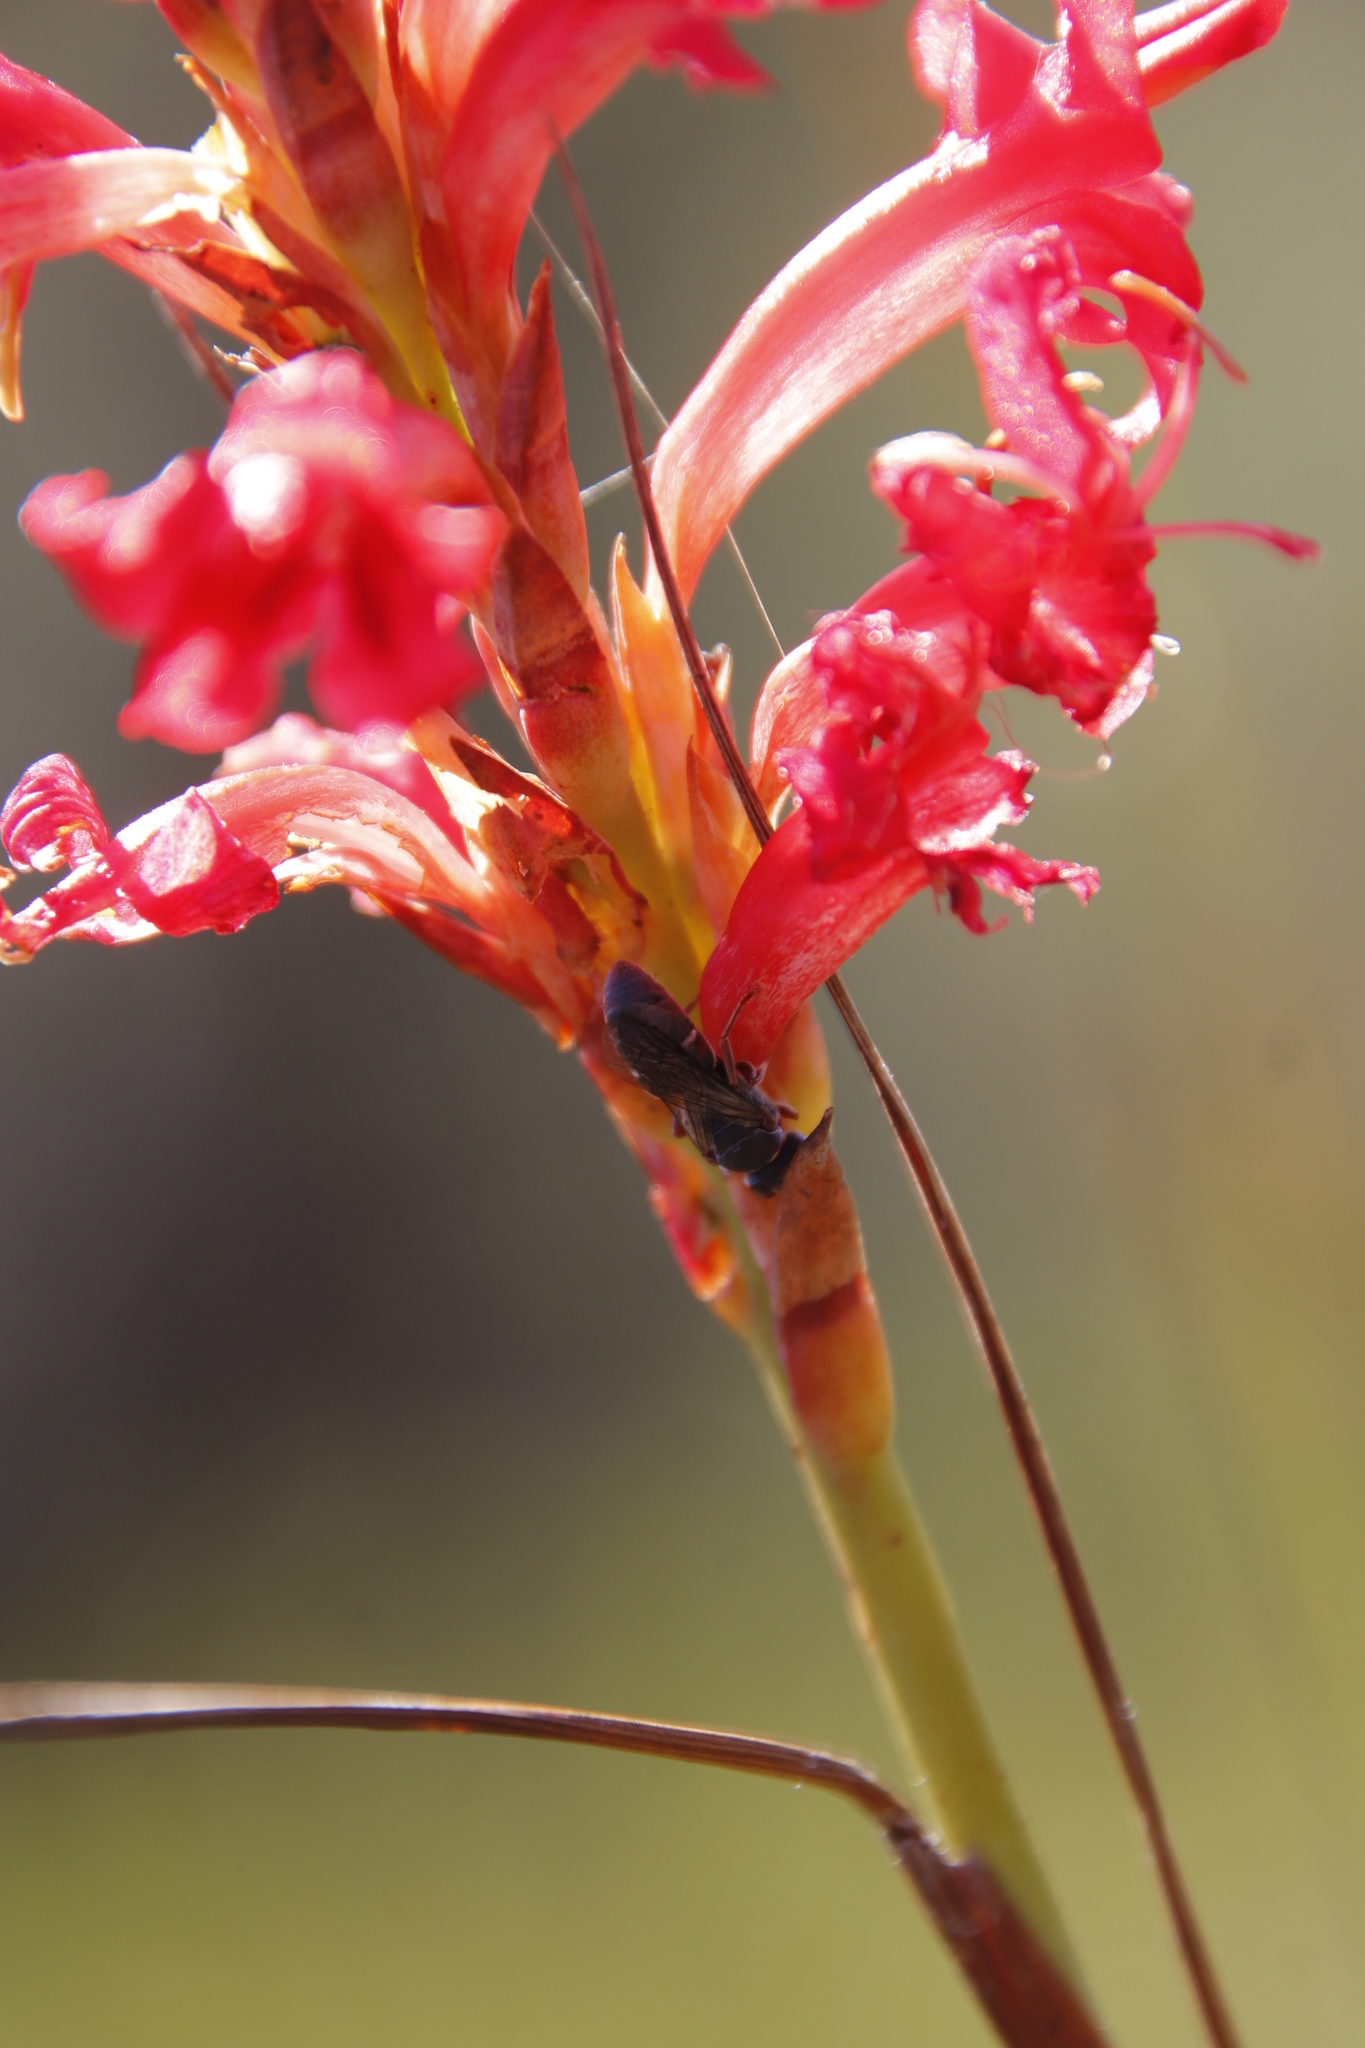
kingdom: Plantae
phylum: Tracheophyta
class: Liliopsida
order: Asparagales
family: Iridaceae
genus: Tritoniopsis
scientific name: Tritoniopsis triticea
